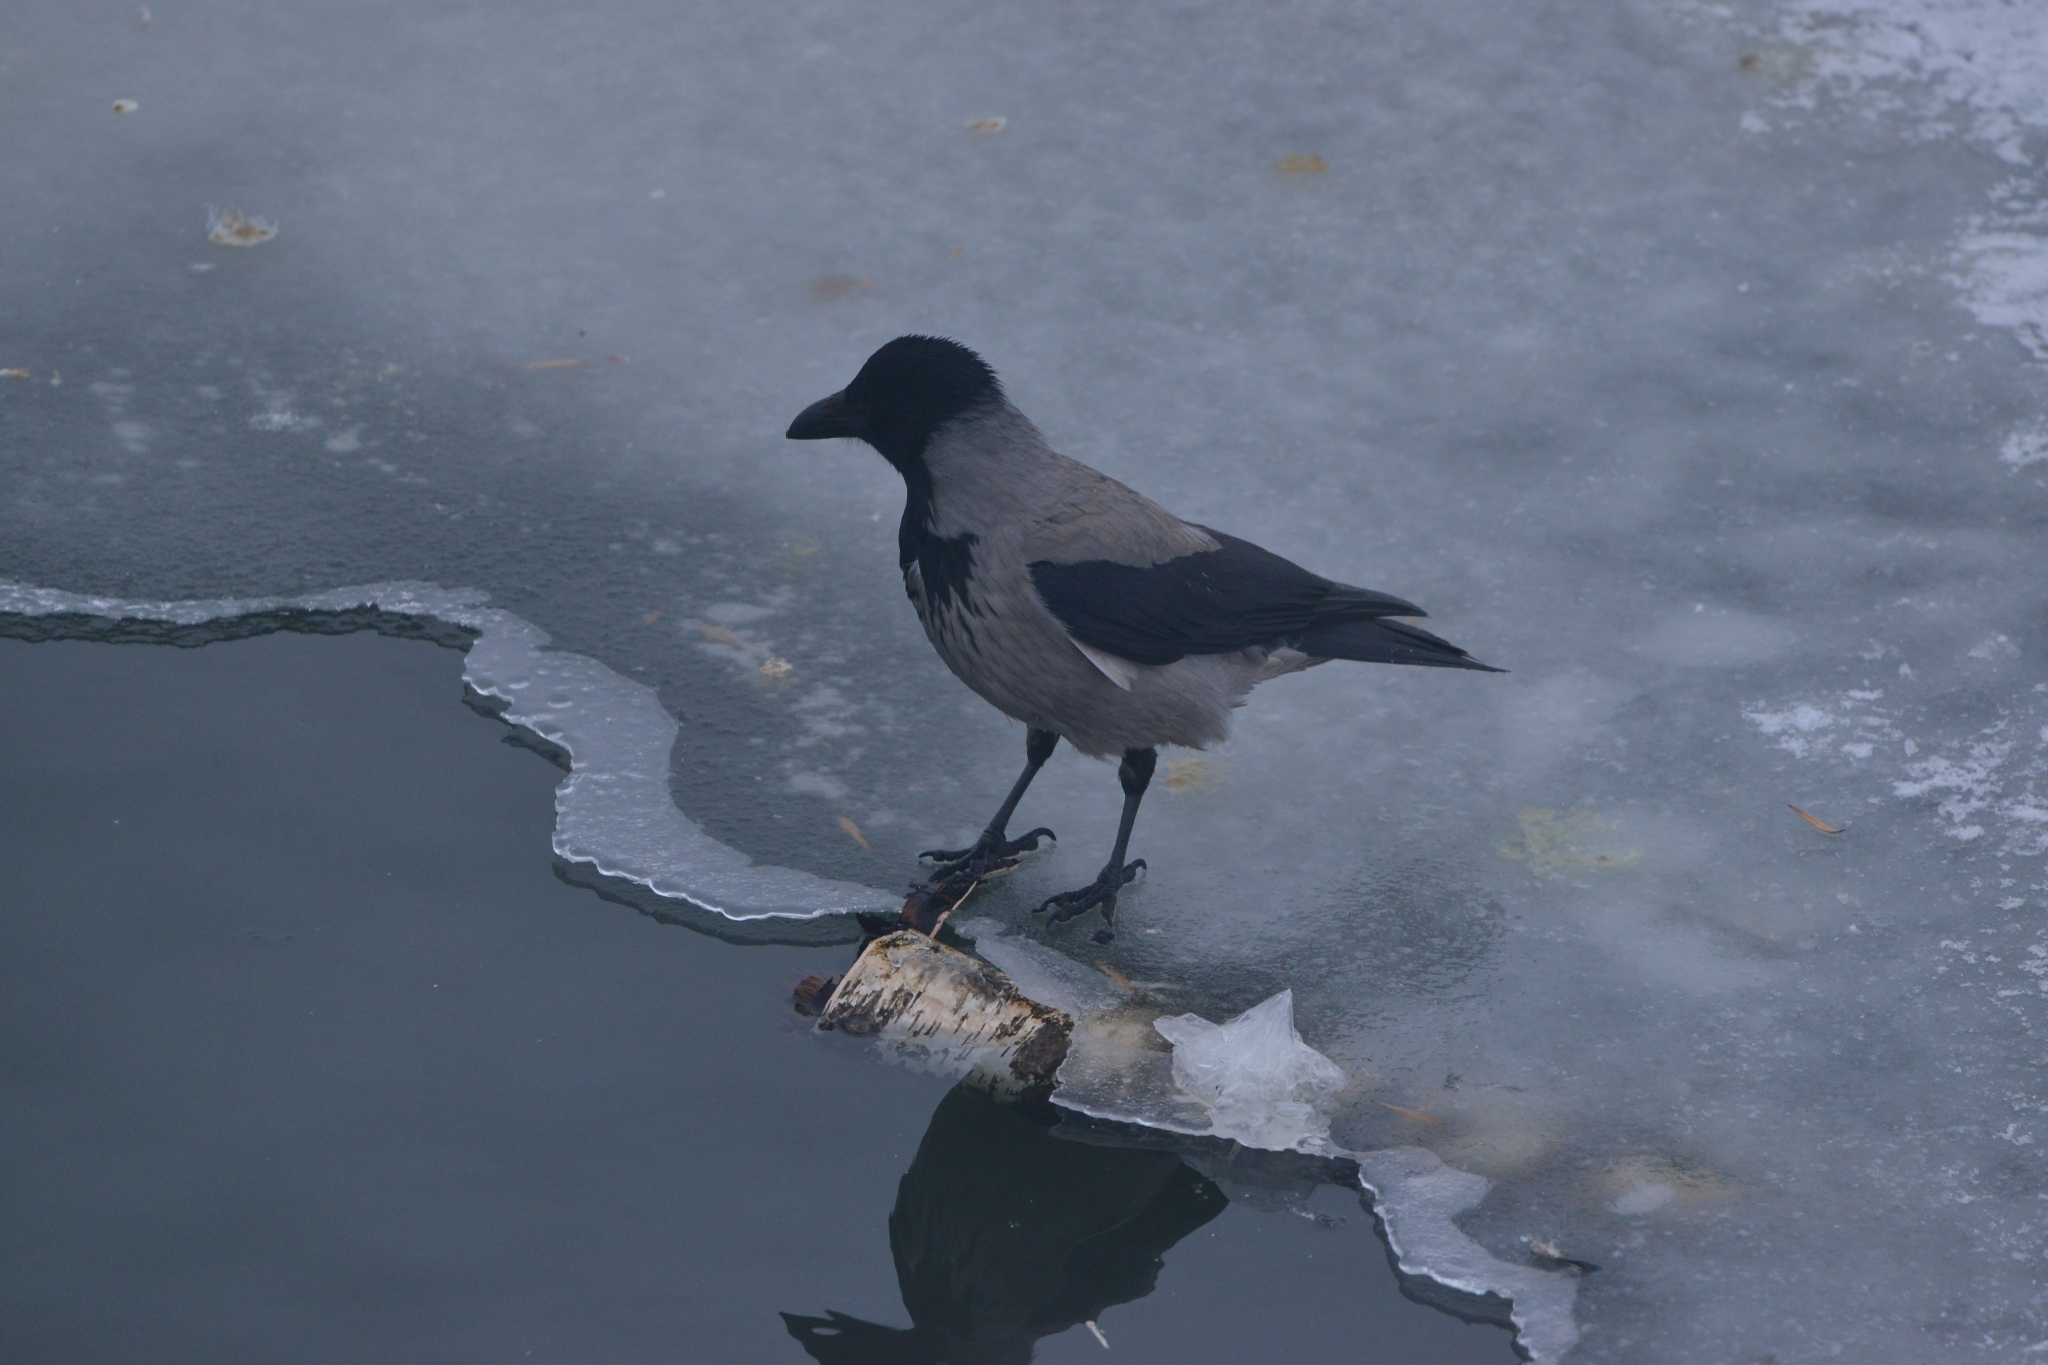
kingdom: Animalia
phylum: Chordata
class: Aves
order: Passeriformes
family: Corvidae
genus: Corvus
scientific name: Corvus cornix
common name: Hooded crow
